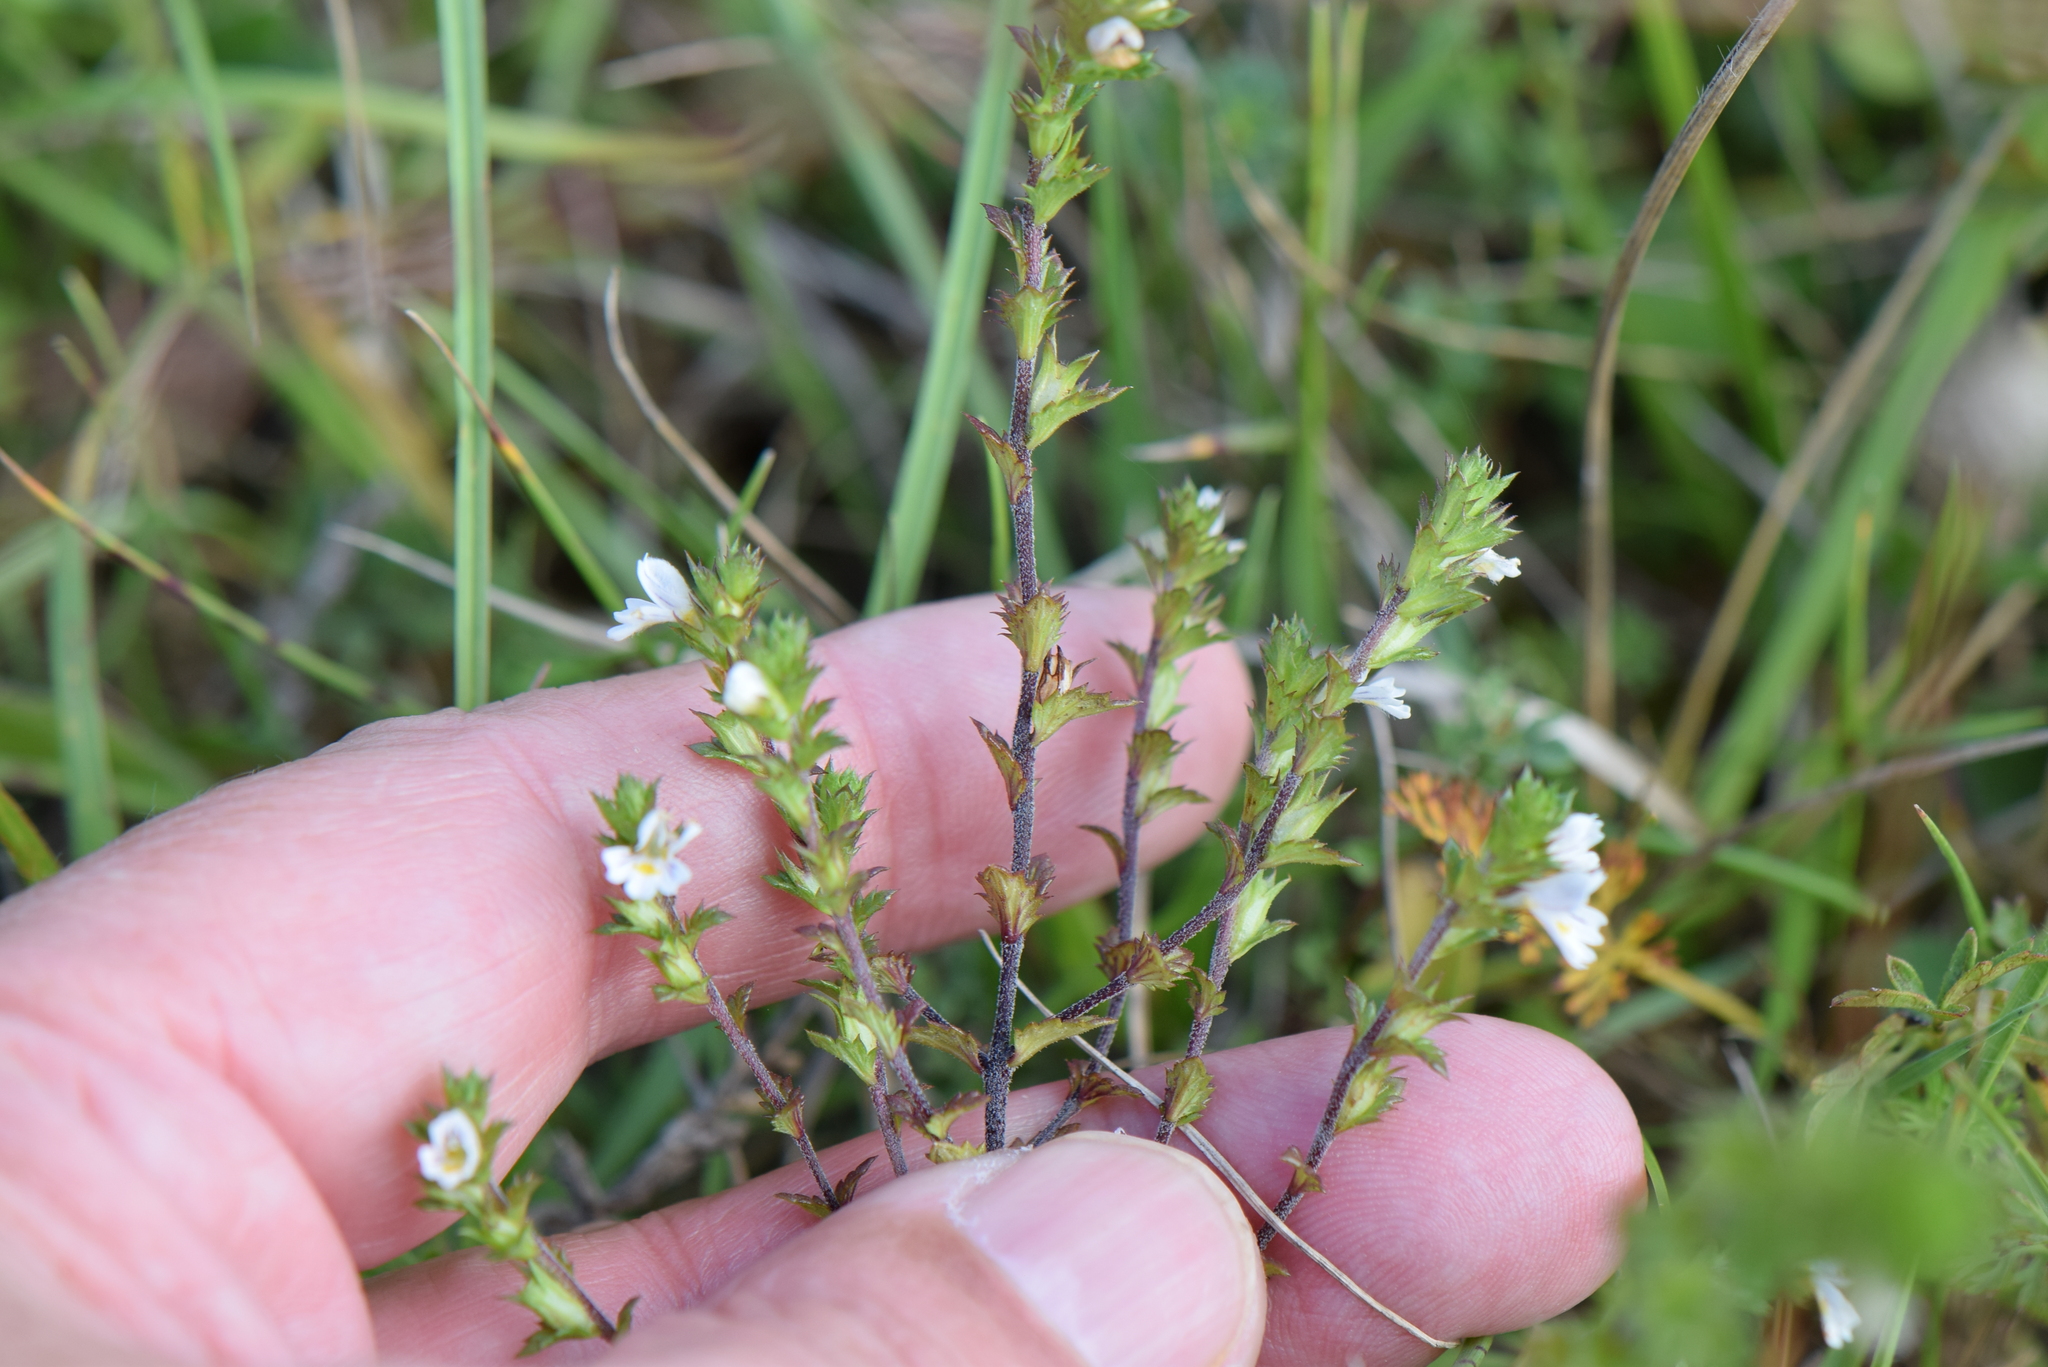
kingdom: Plantae
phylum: Tracheophyta
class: Magnoliopsida
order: Lamiales
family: Orobanchaceae
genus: Euphrasia
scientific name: Euphrasia pseudokerneri
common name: Chalk eyebright
